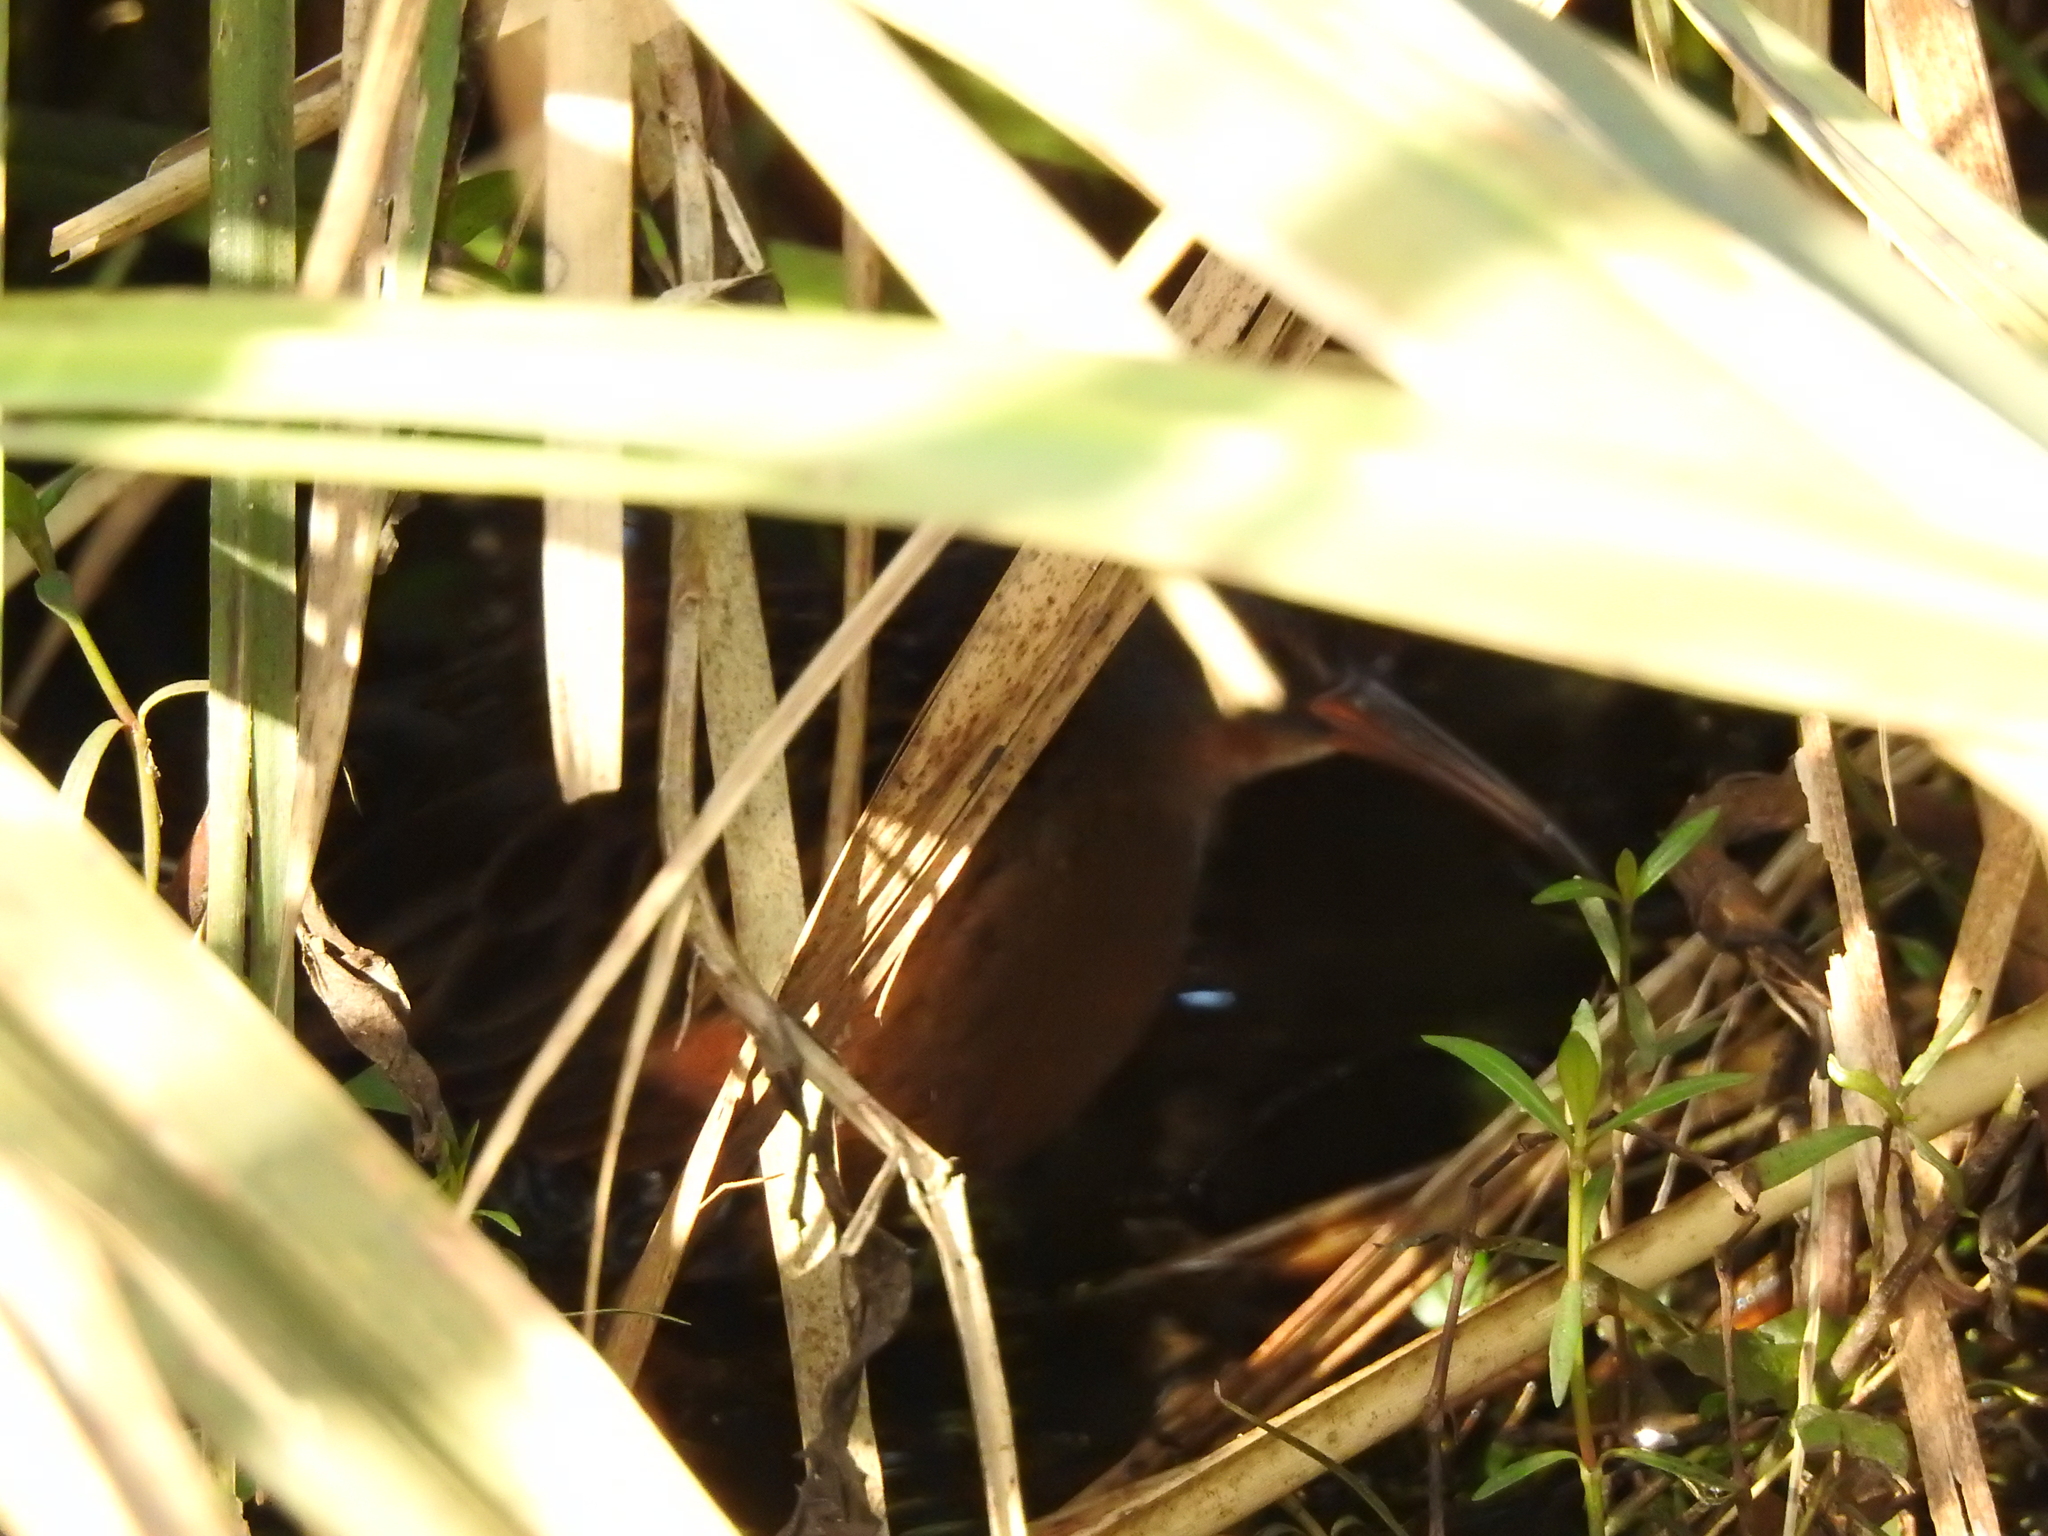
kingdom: Animalia
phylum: Chordata
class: Aves
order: Gruiformes
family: Rallidae
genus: Rallus
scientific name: Rallus limicola
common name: Virginia rail
